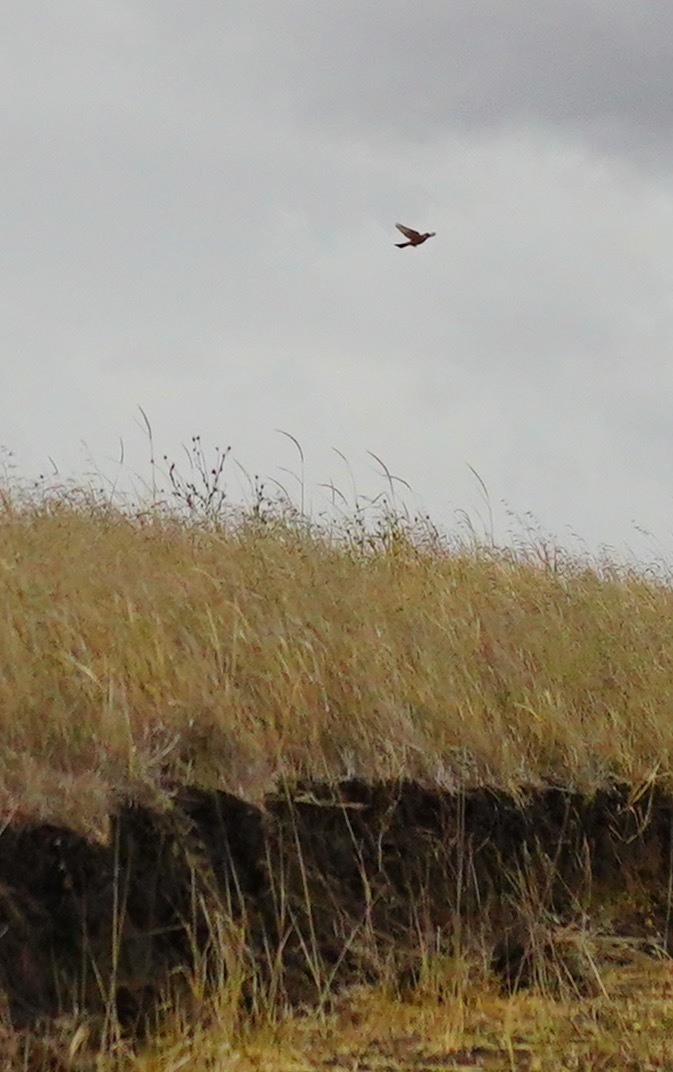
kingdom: Animalia
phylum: Chordata
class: Aves
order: Passeriformes
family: Tyrannidae
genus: Sayornis
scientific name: Sayornis saya
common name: Say's phoebe
